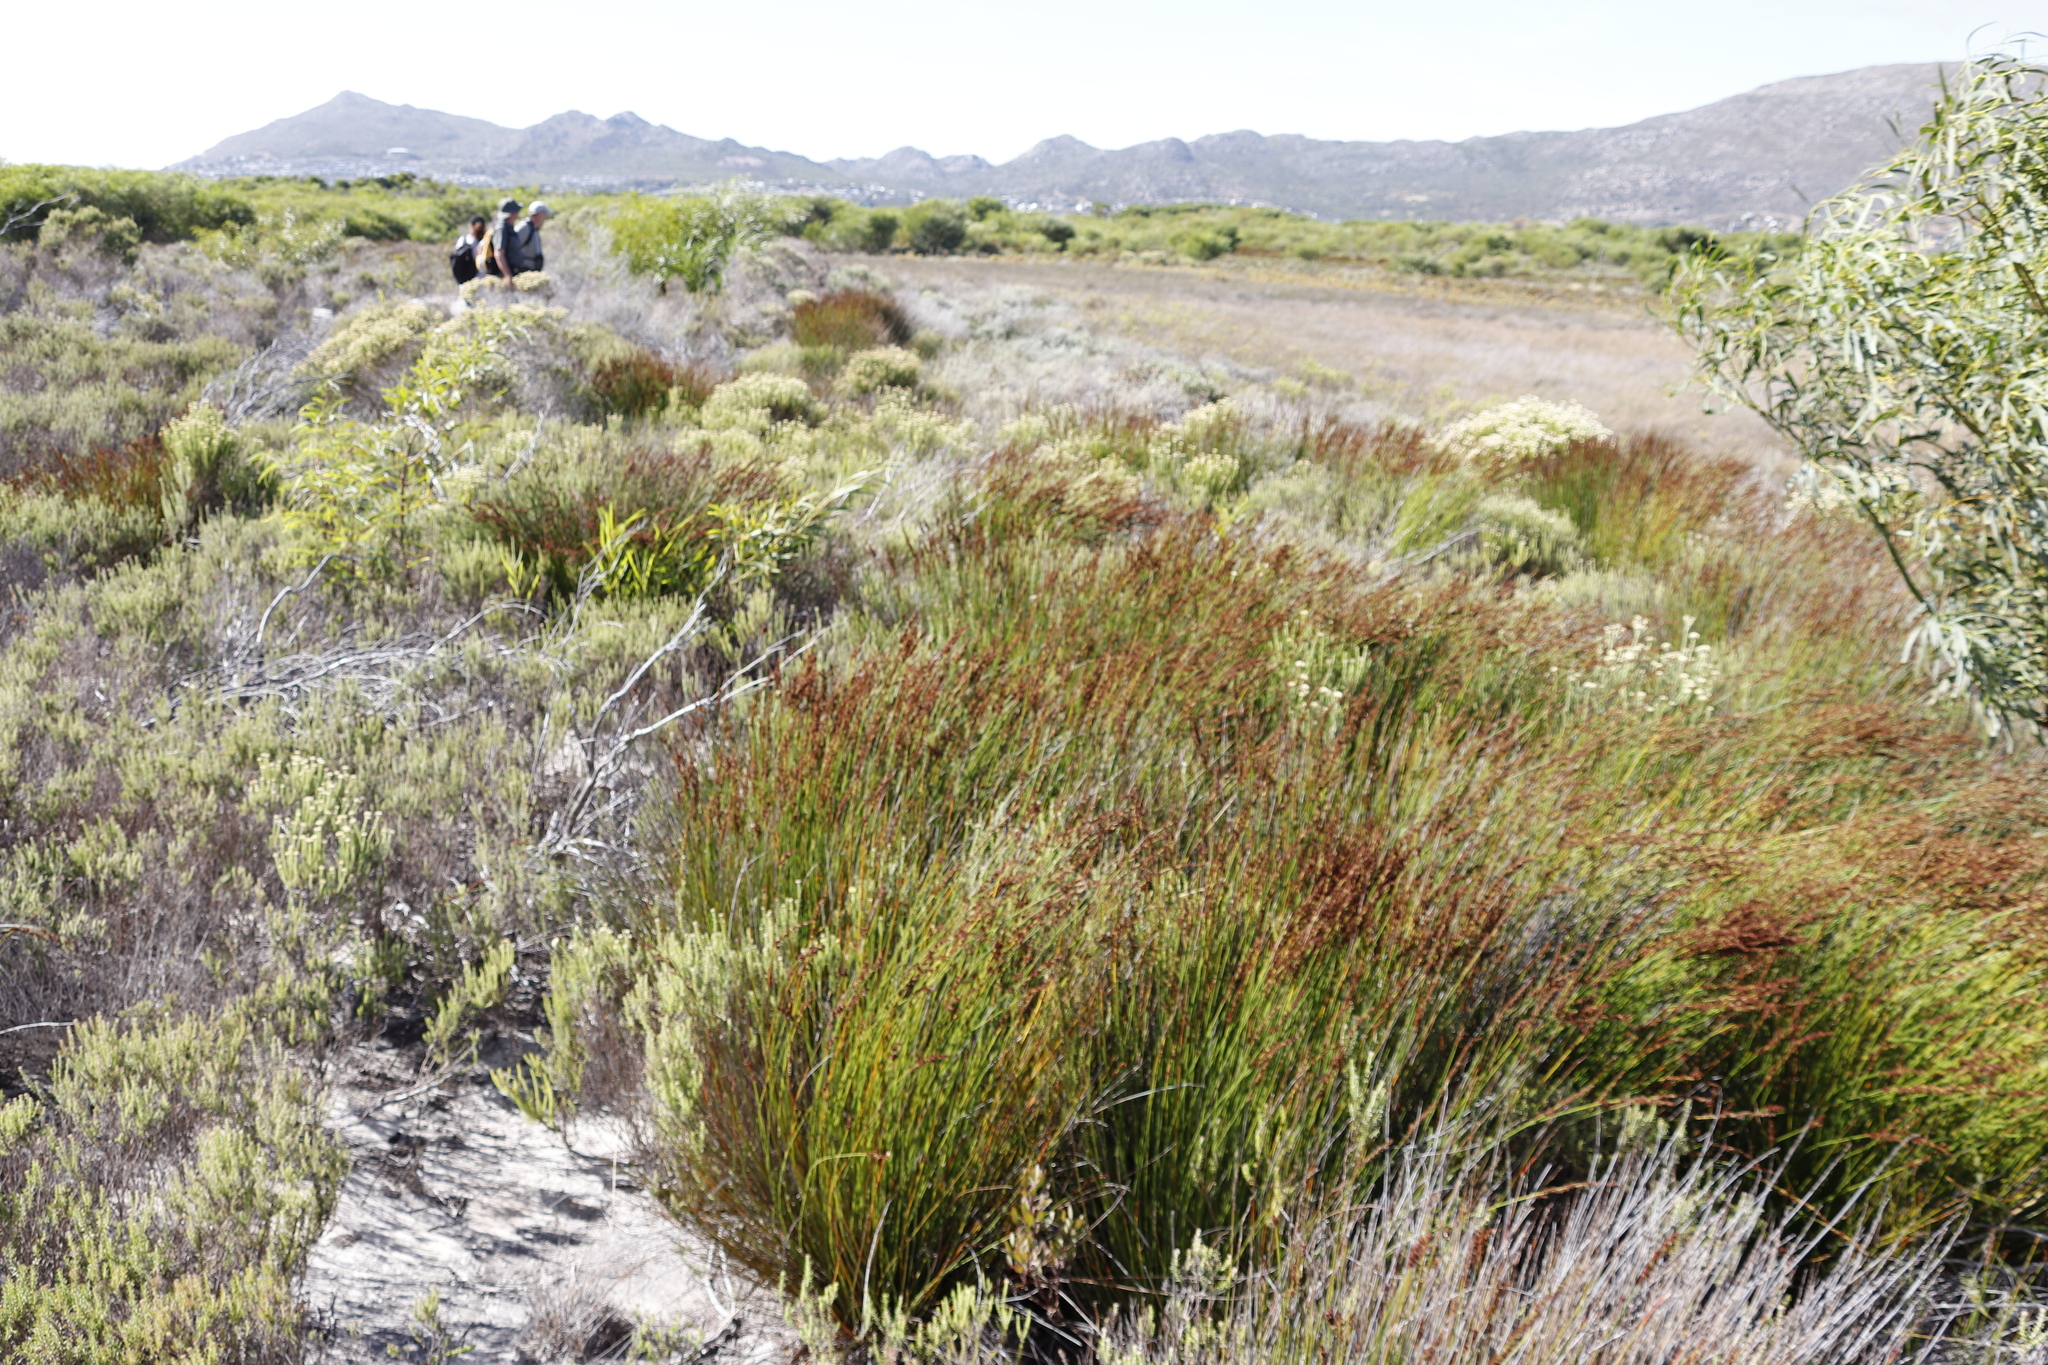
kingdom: Plantae
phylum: Tracheophyta
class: Liliopsida
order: Poales
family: Restionaceae
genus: Elegia
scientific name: Elegia tectorum
